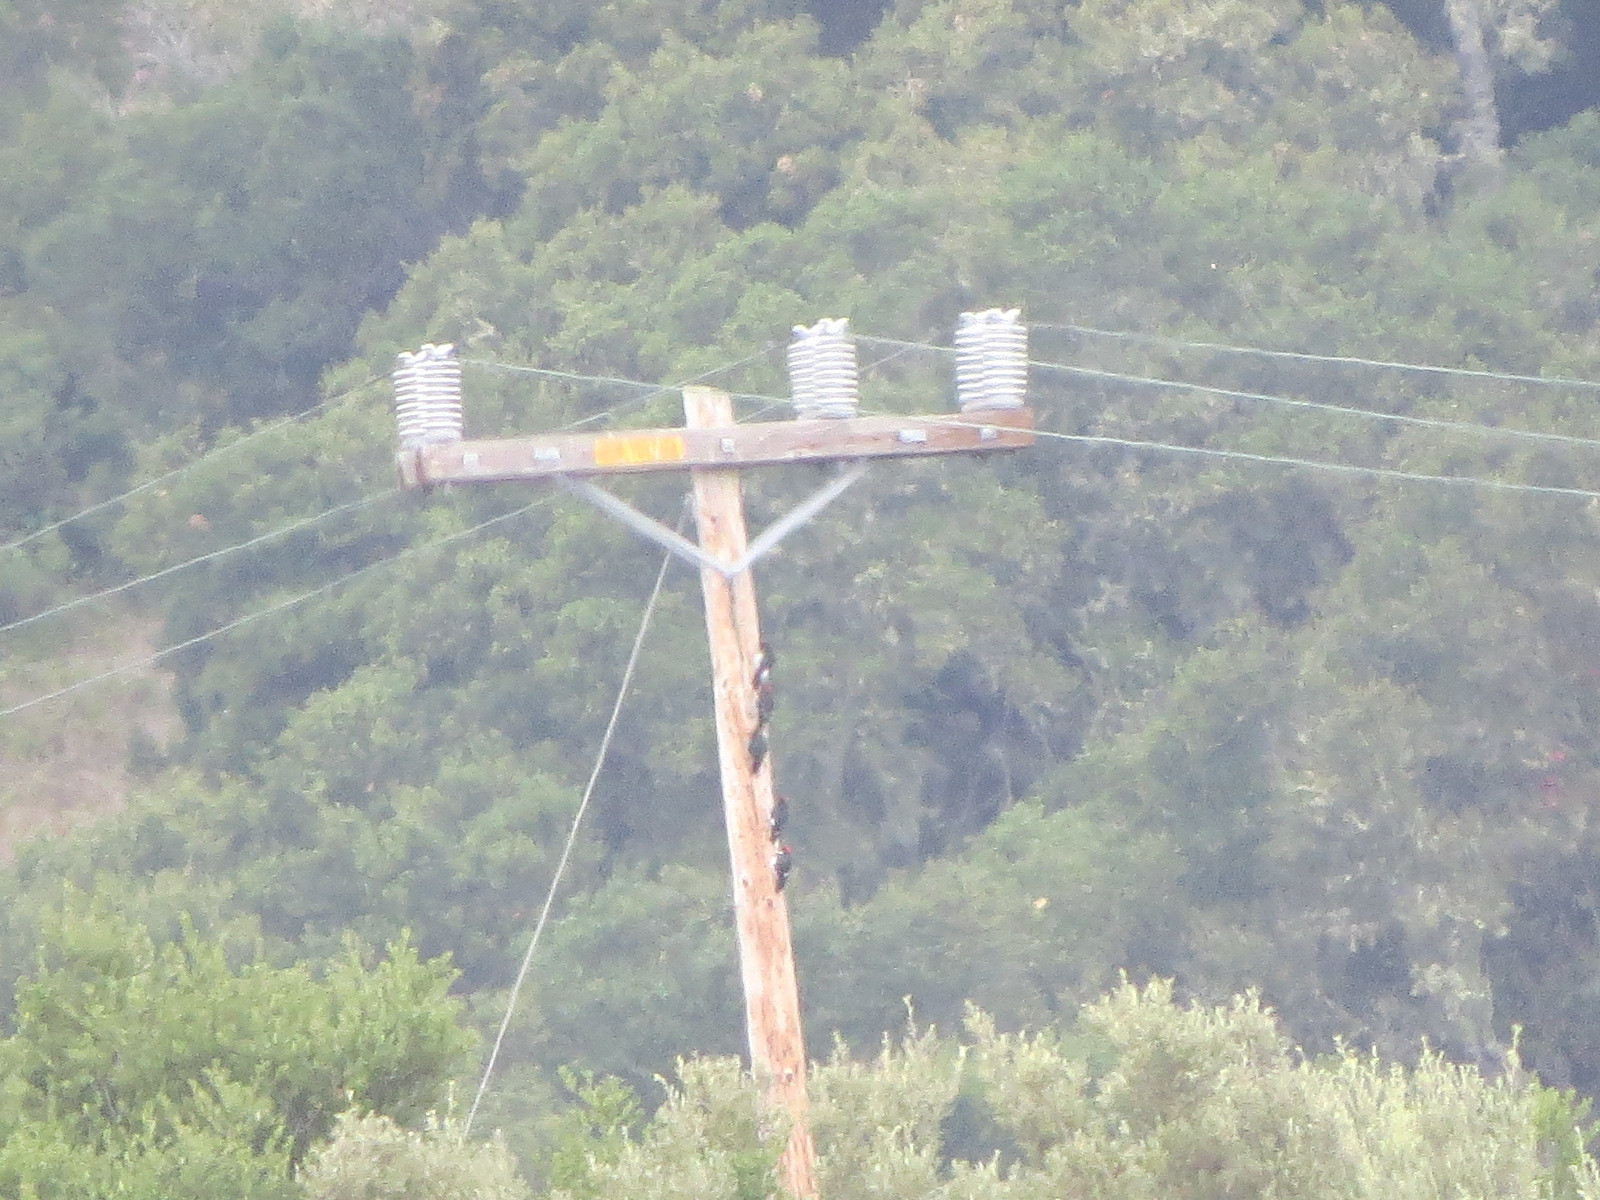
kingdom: Animalia
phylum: Chordata
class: Aves
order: Piciformes
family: Picidae
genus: Melanerpes
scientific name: Melanerpes formicivorus
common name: Acorn woodpecker
